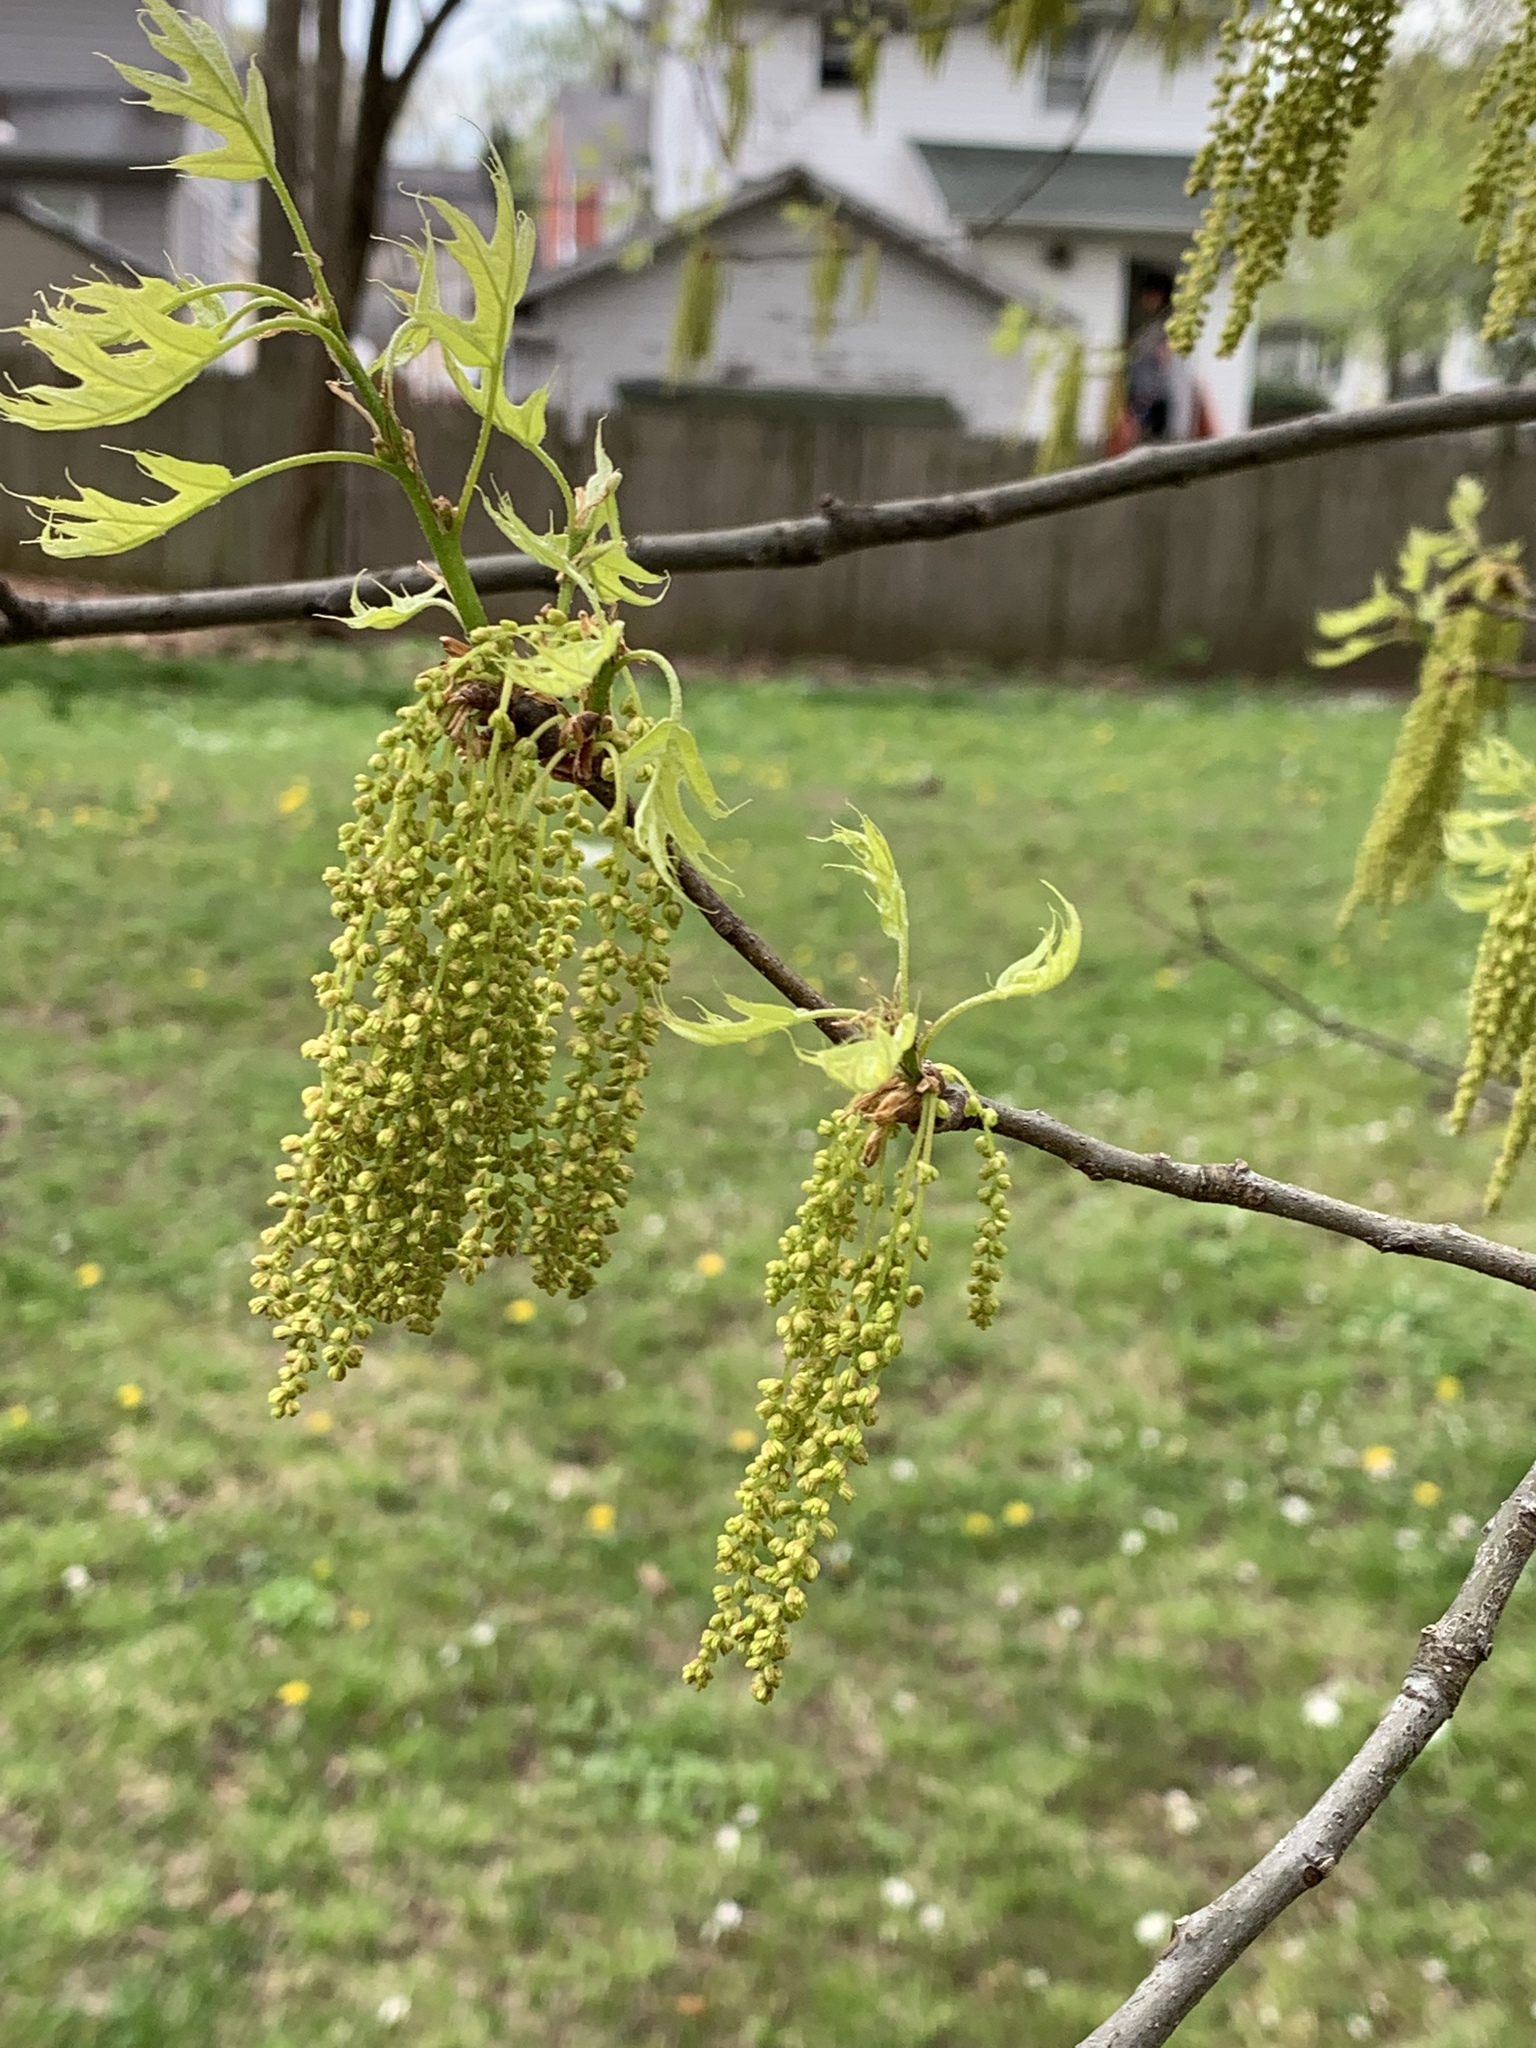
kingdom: Plantae
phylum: Tracheophyta
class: Magnoliopsida
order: Fagales
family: Fagaceae
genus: Quercus
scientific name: Quercus rubra
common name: Red oak
